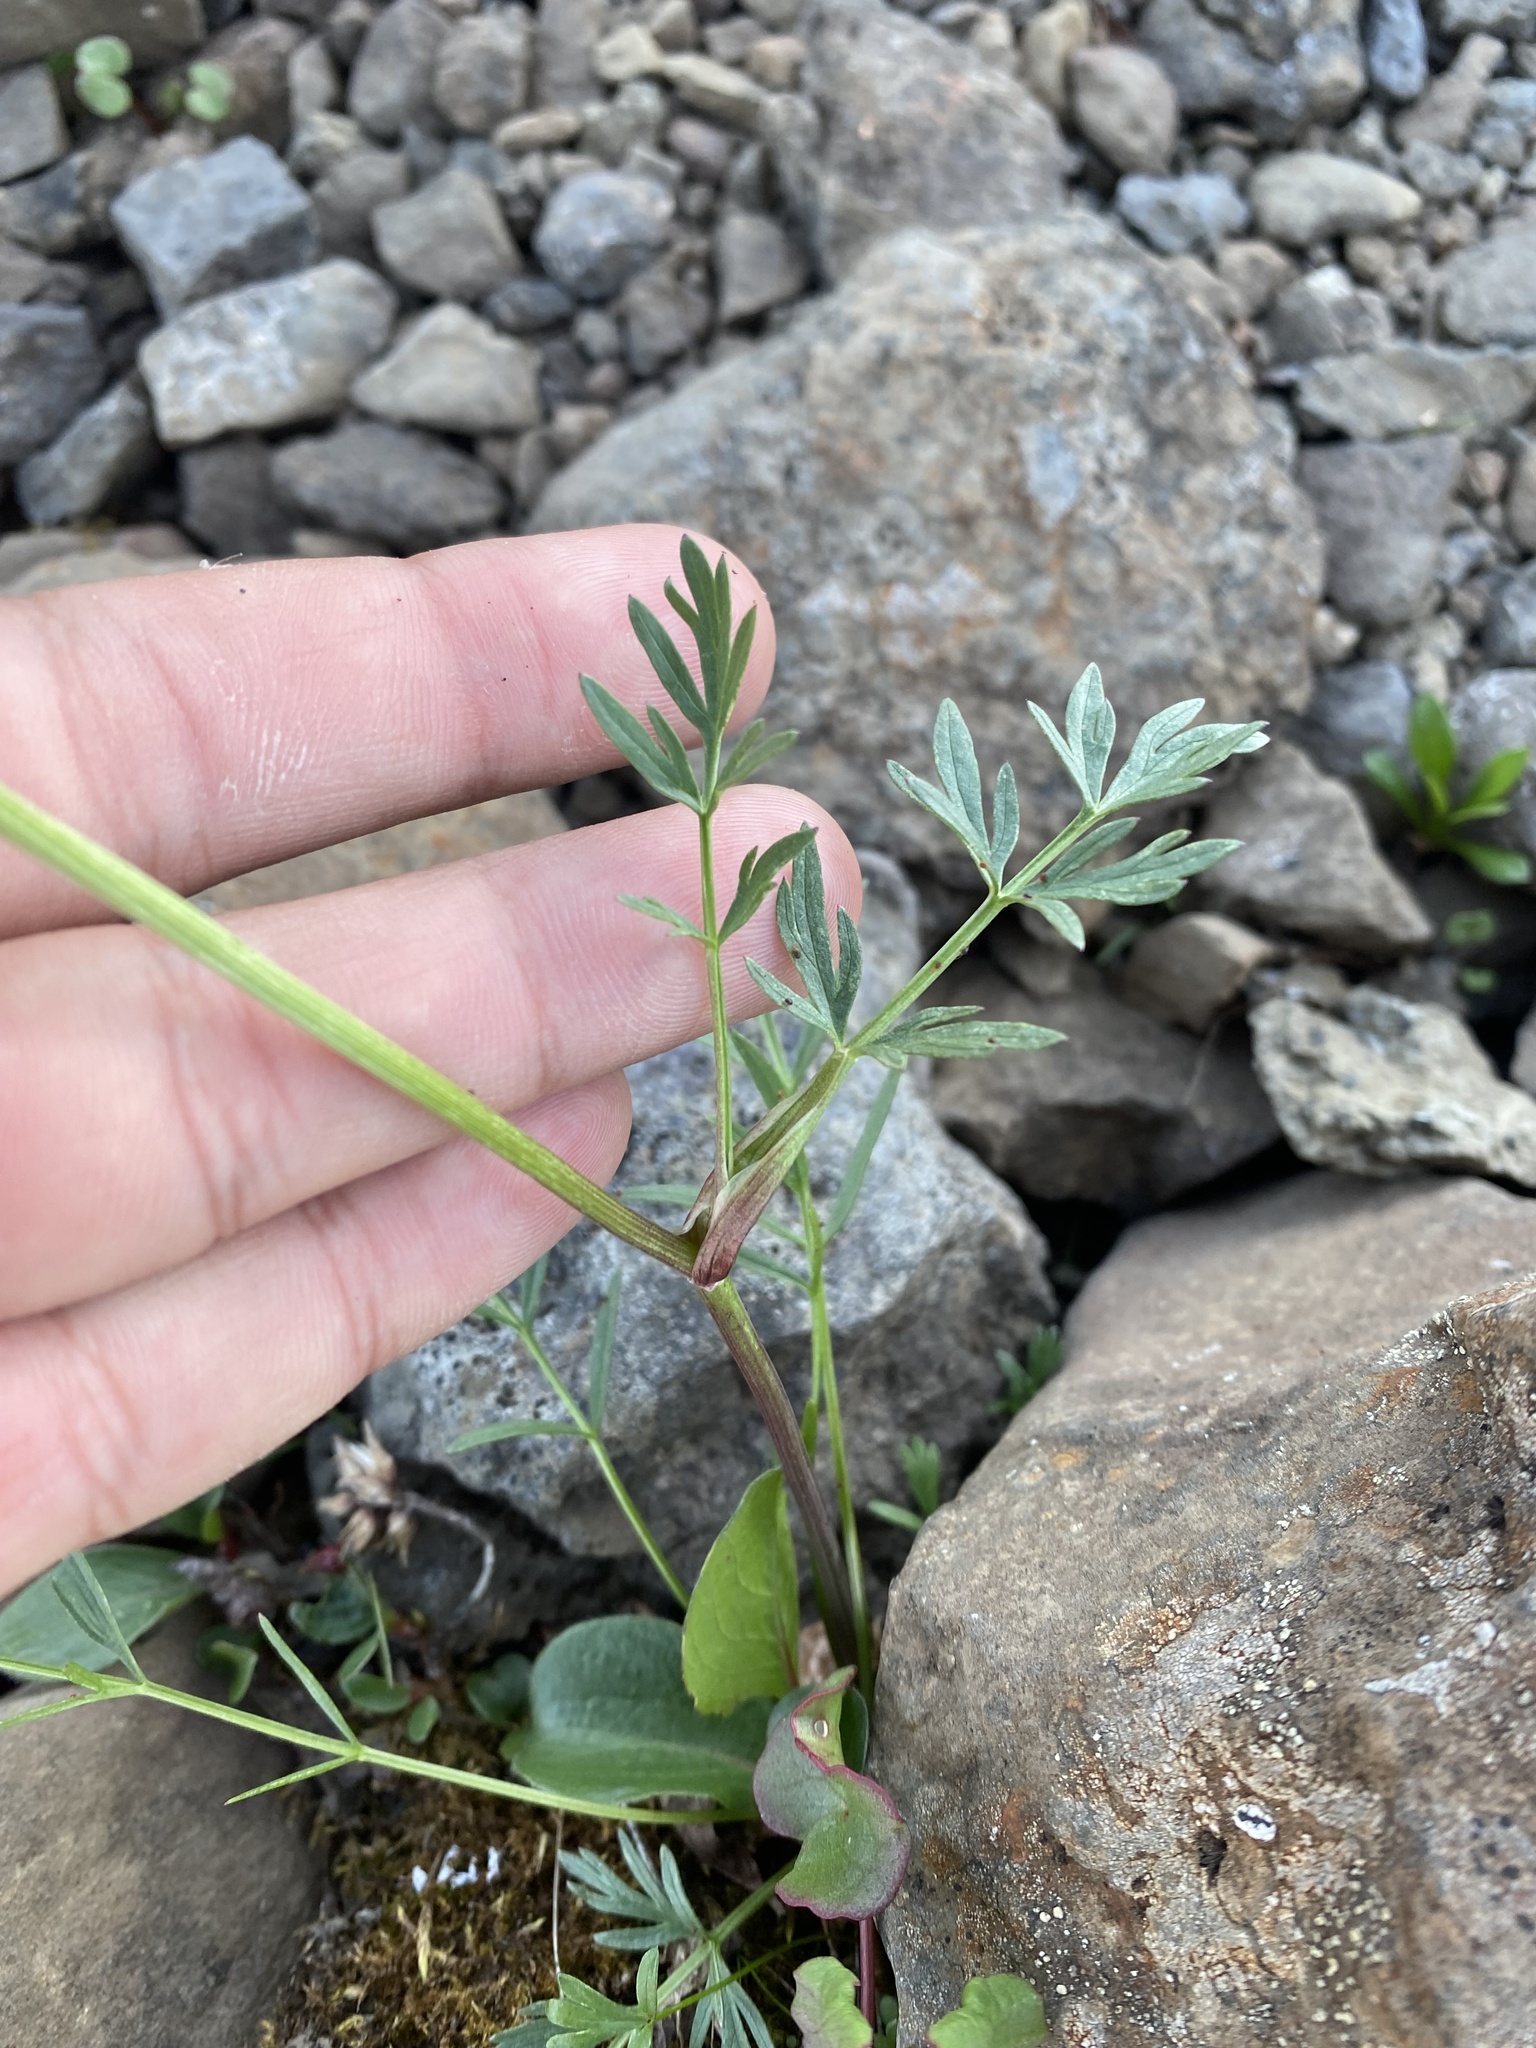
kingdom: Plantae
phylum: Tracheophyta
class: Magnoliopsida
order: Apiales
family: Apiaceae
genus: Pachypleurum
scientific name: Pachypleurum mutellinoides
